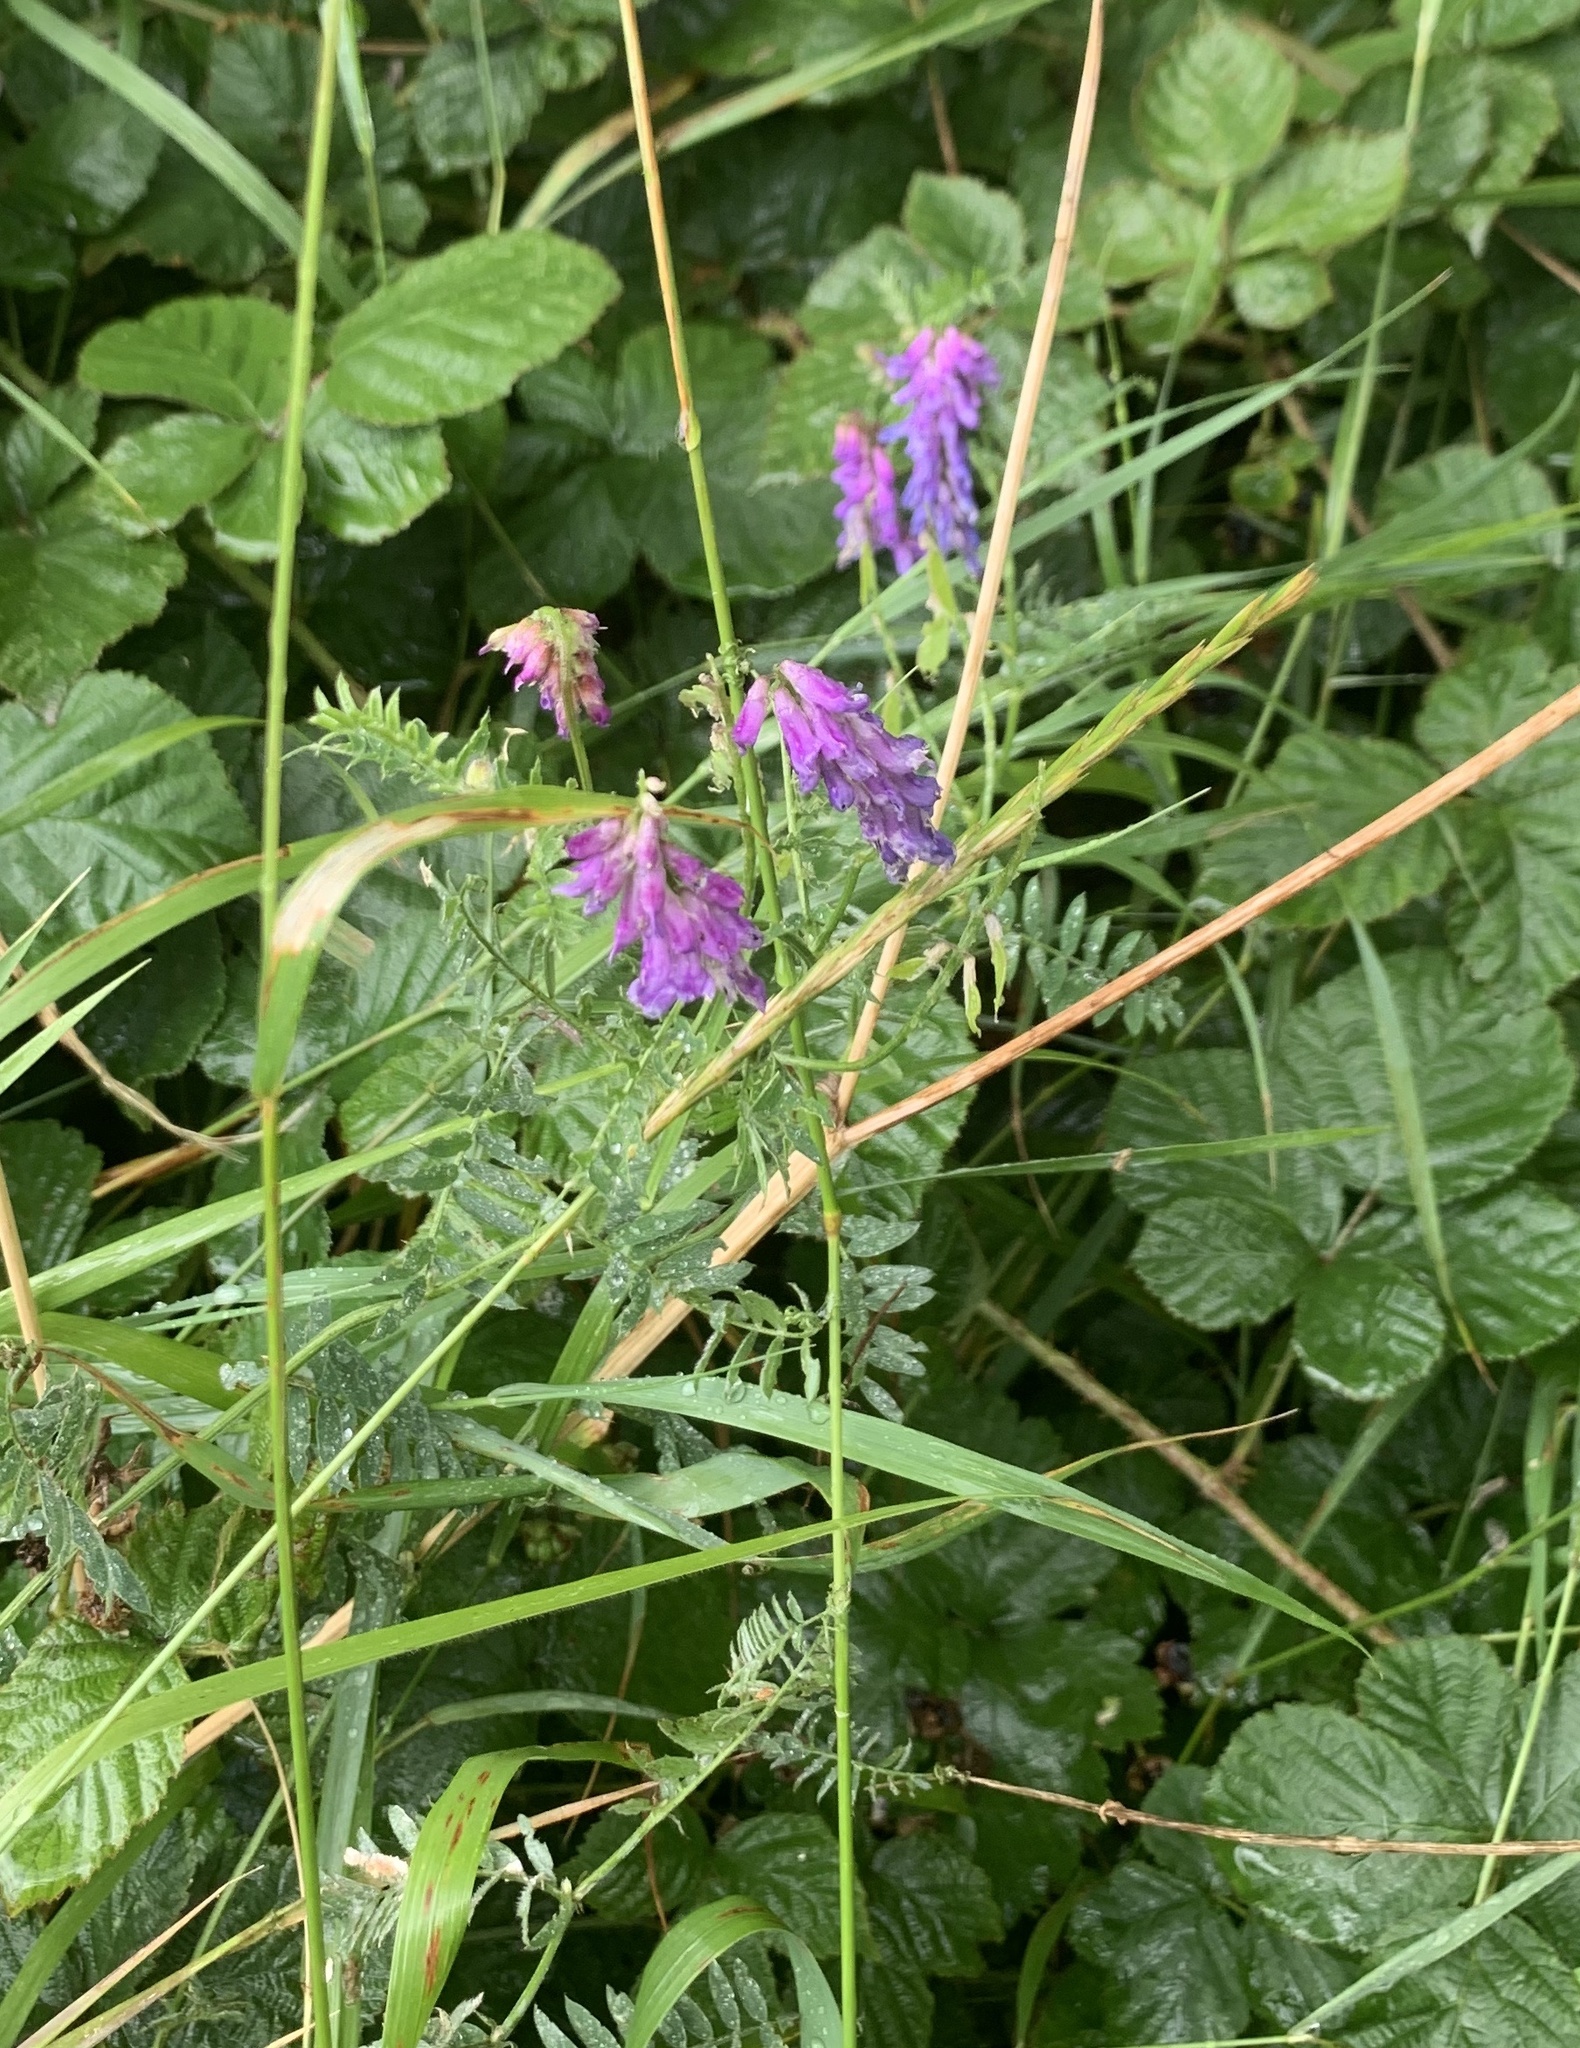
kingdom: Plantae
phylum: Tracheophyta
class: Magnoliopsida
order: Fabales
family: Fabaceae
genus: Vicia
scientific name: Vicia cracca
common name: Bird vetch
